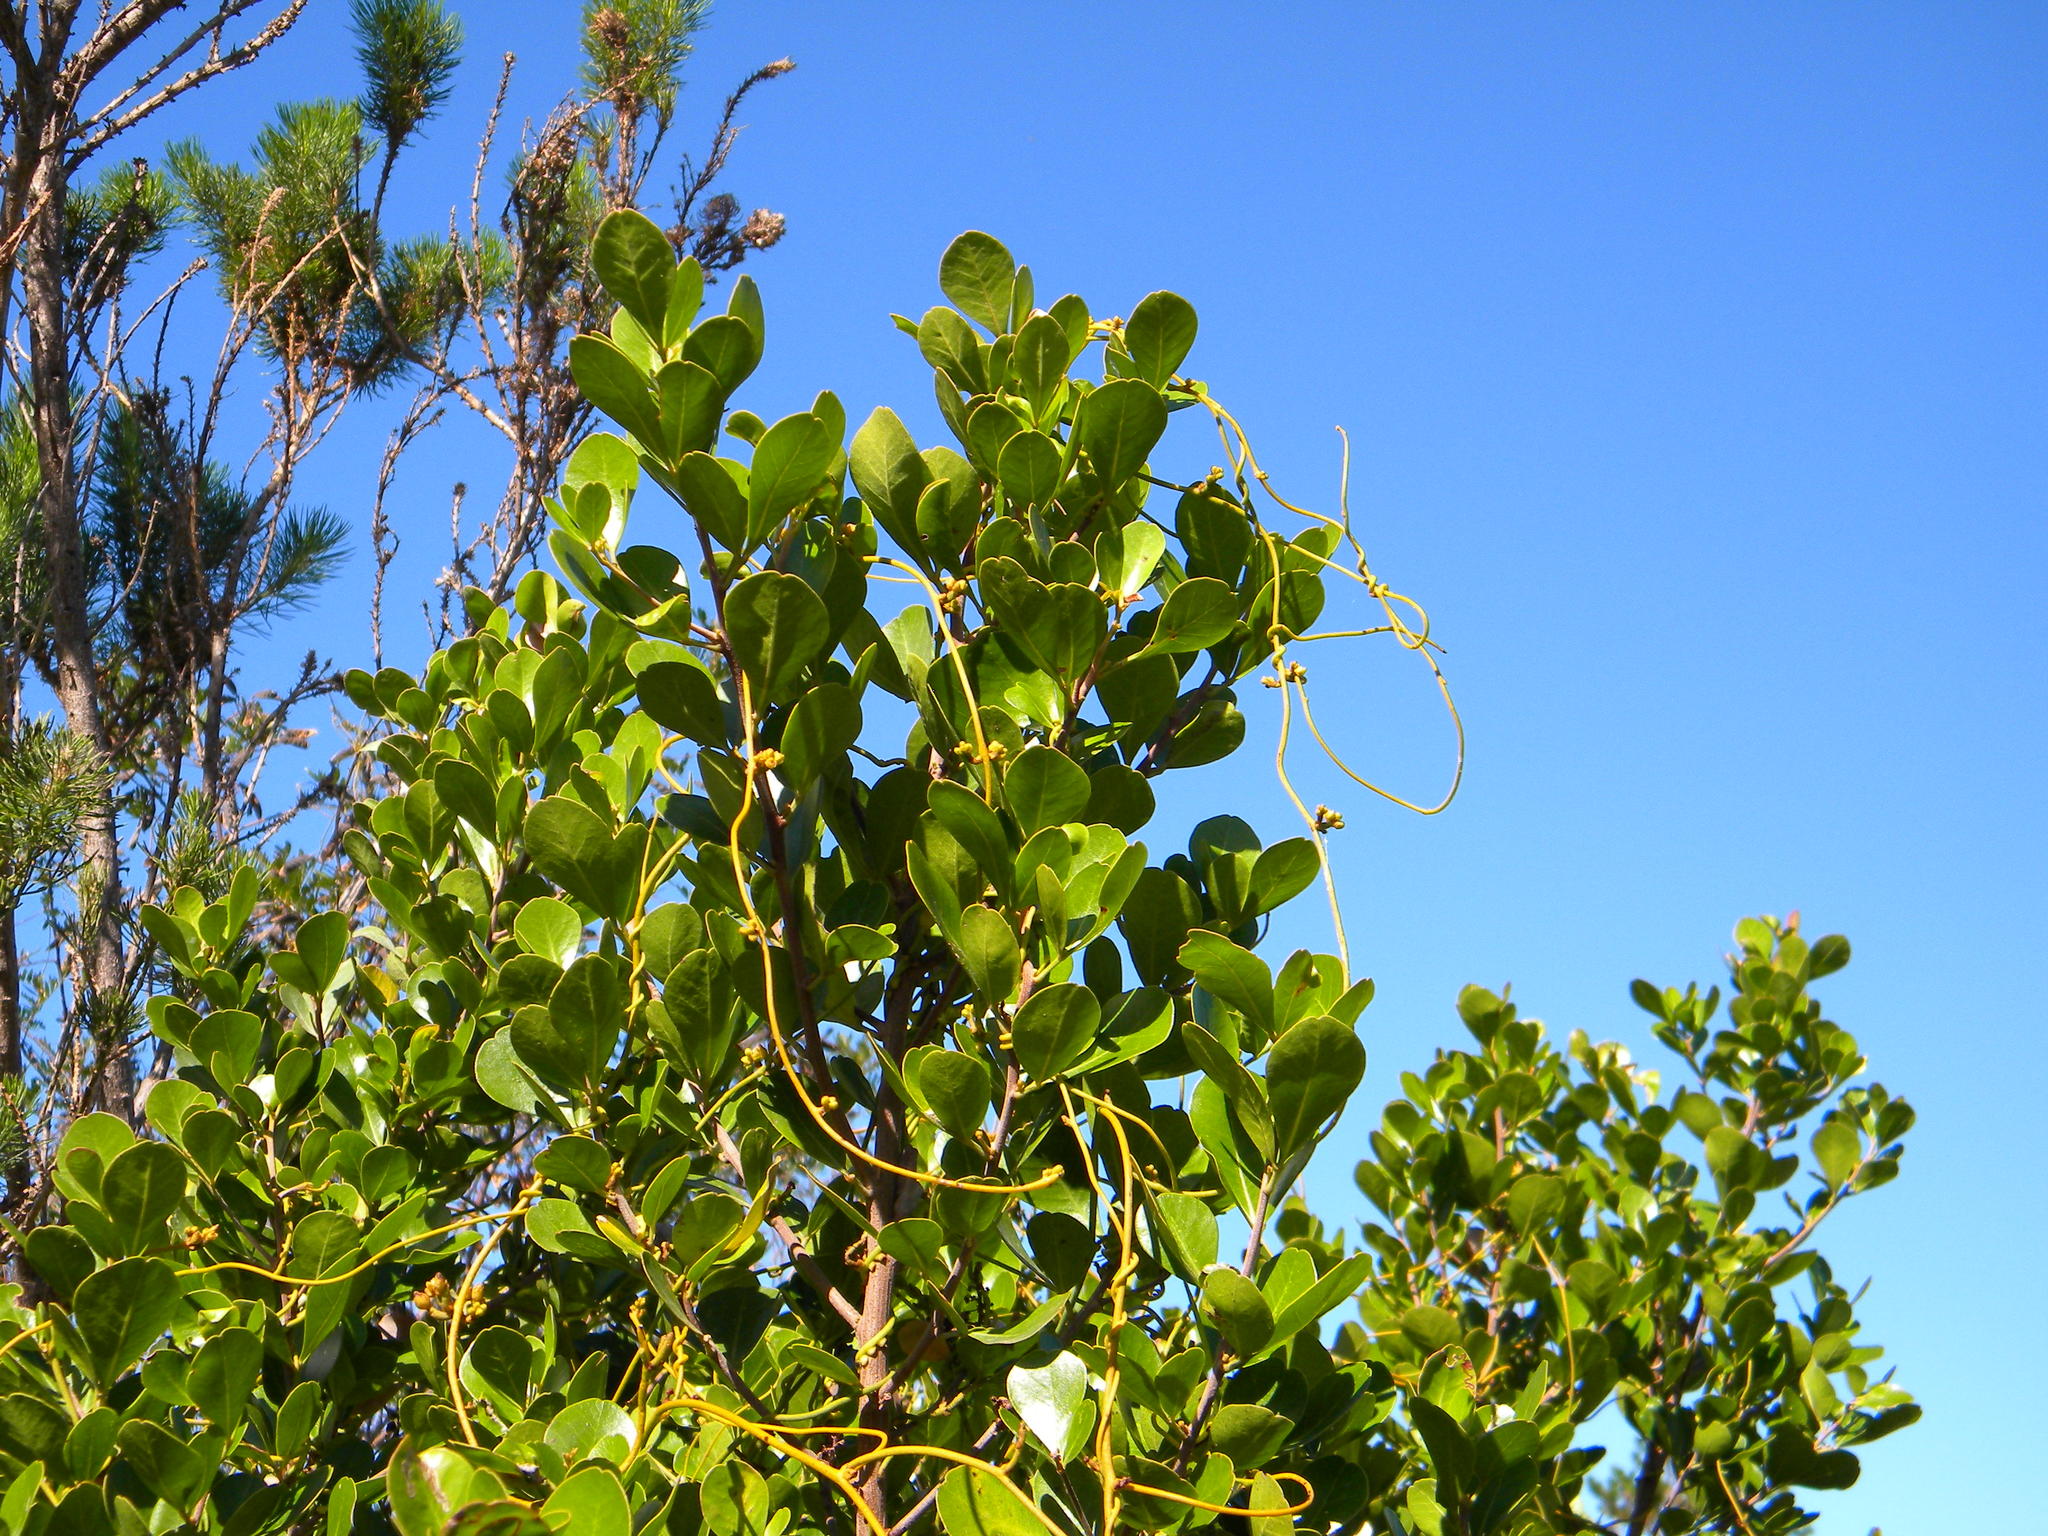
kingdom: Plantae
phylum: Tracheophyta
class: Magnoliopsida
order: Laurales
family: Lauraceae
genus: Cassytha
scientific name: Cassytha ciliolata
